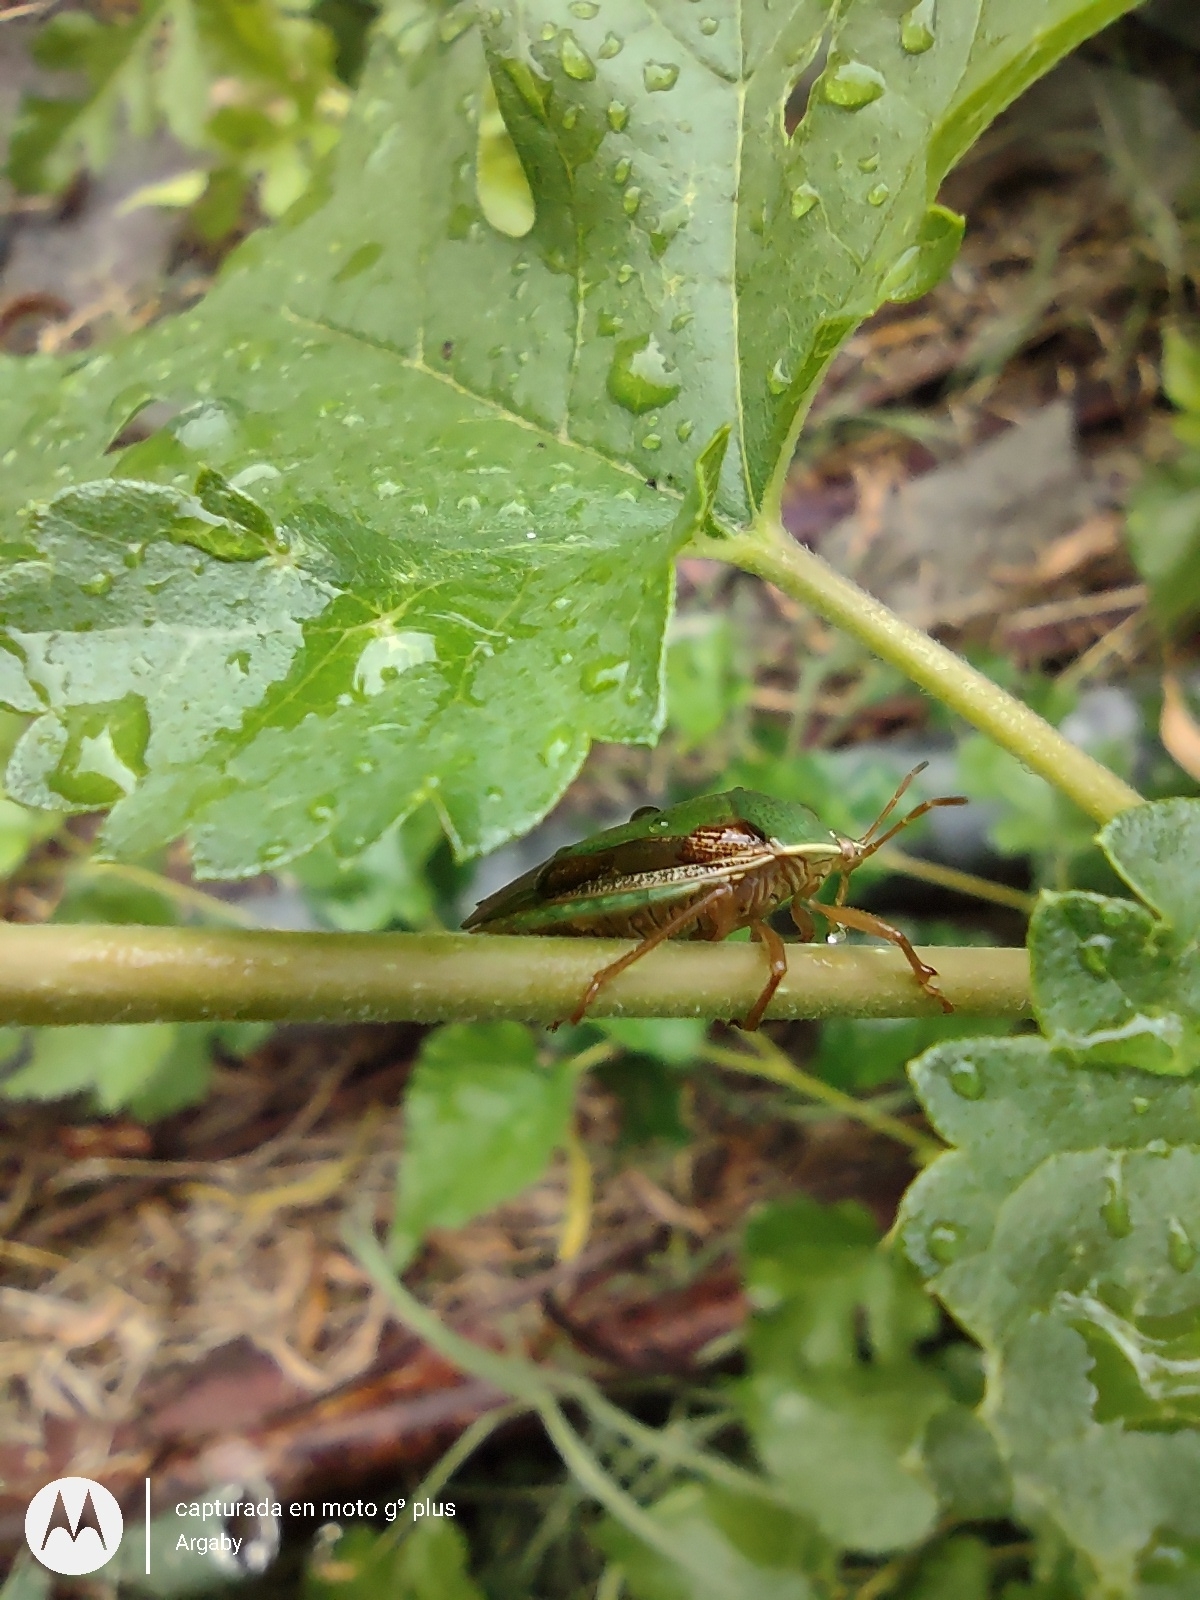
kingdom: Animalia
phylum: Arthropoda
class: Insecta
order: Hemiptera
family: Pentatomidae
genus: Edessa
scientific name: Edessa meditabunda
